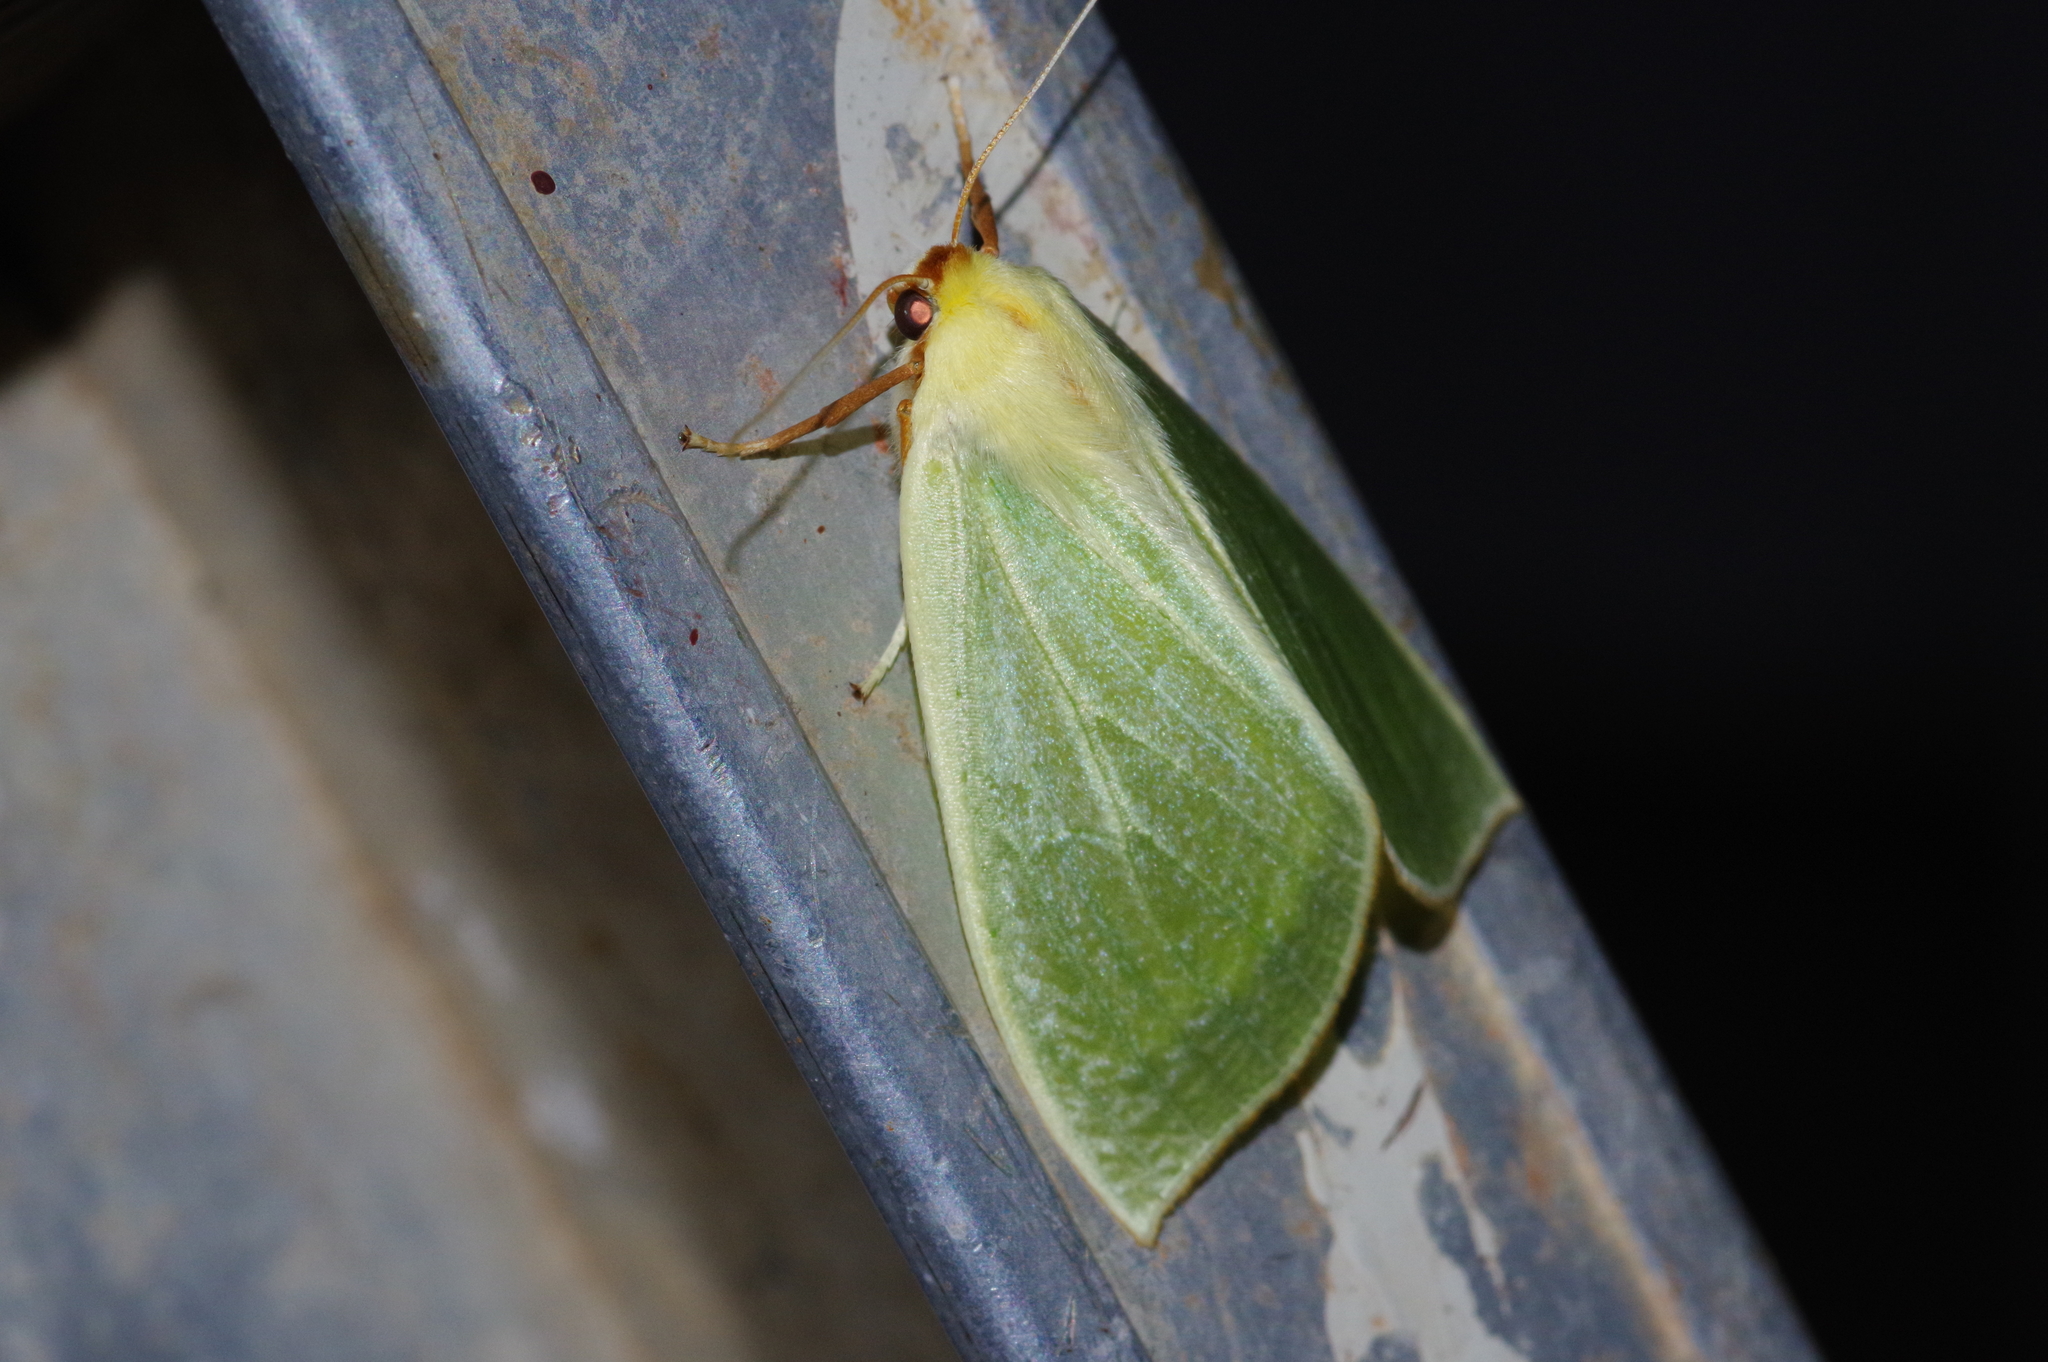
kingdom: Animalia
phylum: Arthropoda
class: Insecta
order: Lepidoptera
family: Geometridae
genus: Doratoptera
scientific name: Doratoptera amabilis
